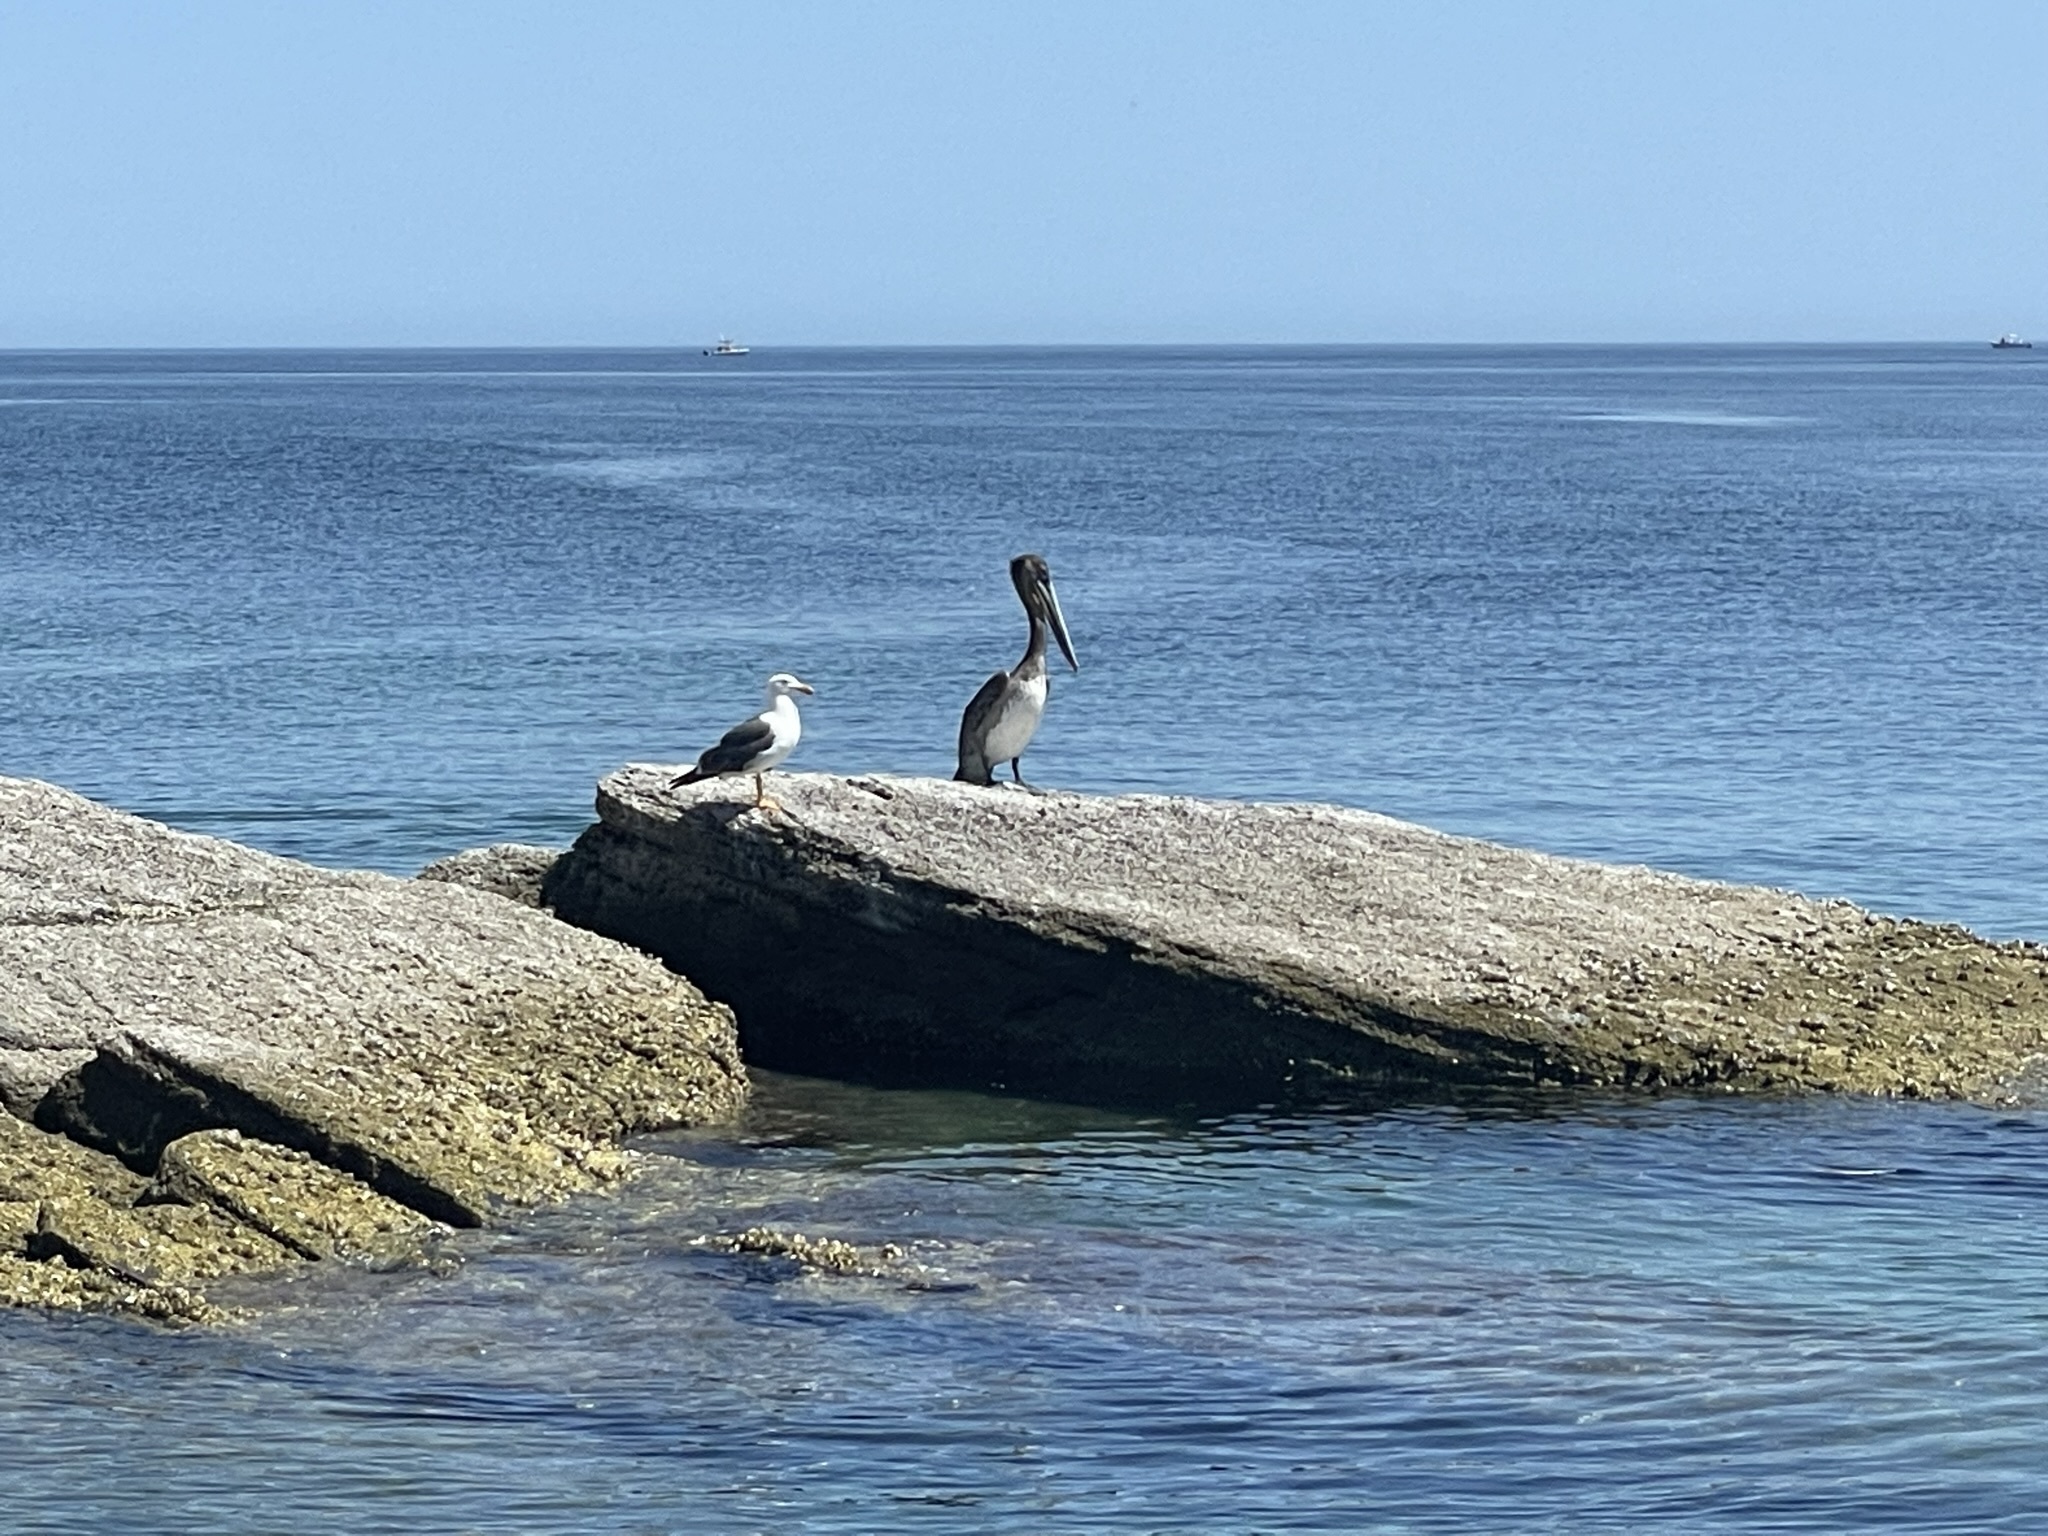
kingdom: Animalia
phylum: Chordata
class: Aves
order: Pelecaniformes
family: Pelecanidae
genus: Pelecanus
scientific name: Pelecanus occidentalis
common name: Brown pelican
